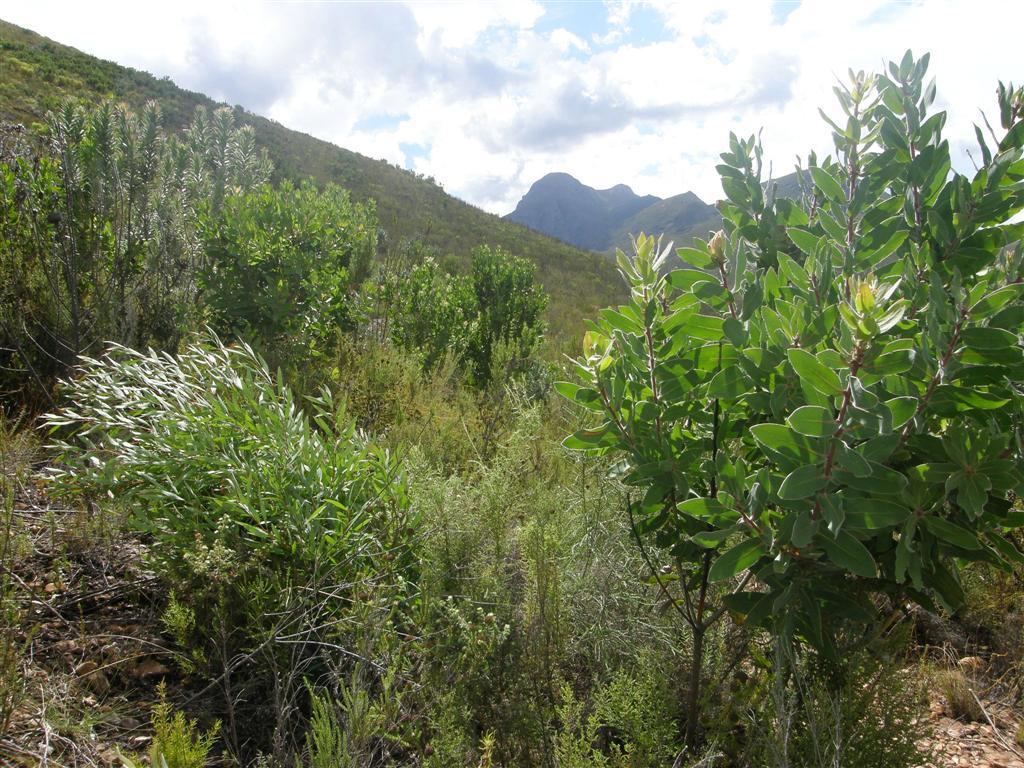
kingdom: Plantae
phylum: Tracheophyta
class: Magnoliopsida
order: Proteales
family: Proteaceae
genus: Hakea
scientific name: Hakea salicifolia
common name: Willow hakea
